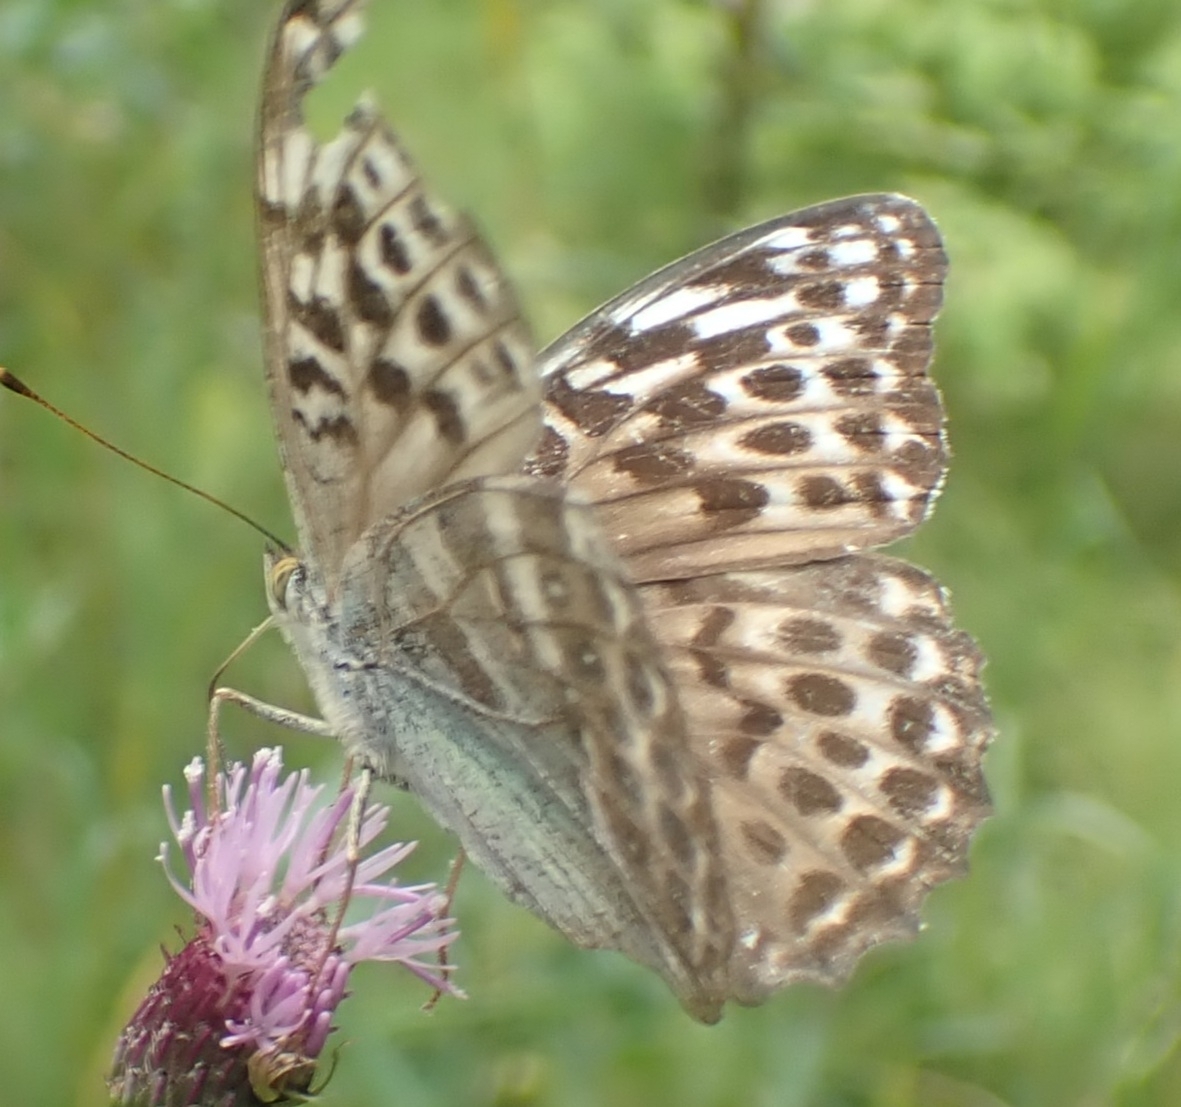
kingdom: Animalia
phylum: Arthropoda
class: Insecta
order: Lepidoptera
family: Nymphalidae
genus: Argynnis
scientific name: Argynnis paphia
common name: Silver-washed fritillary
